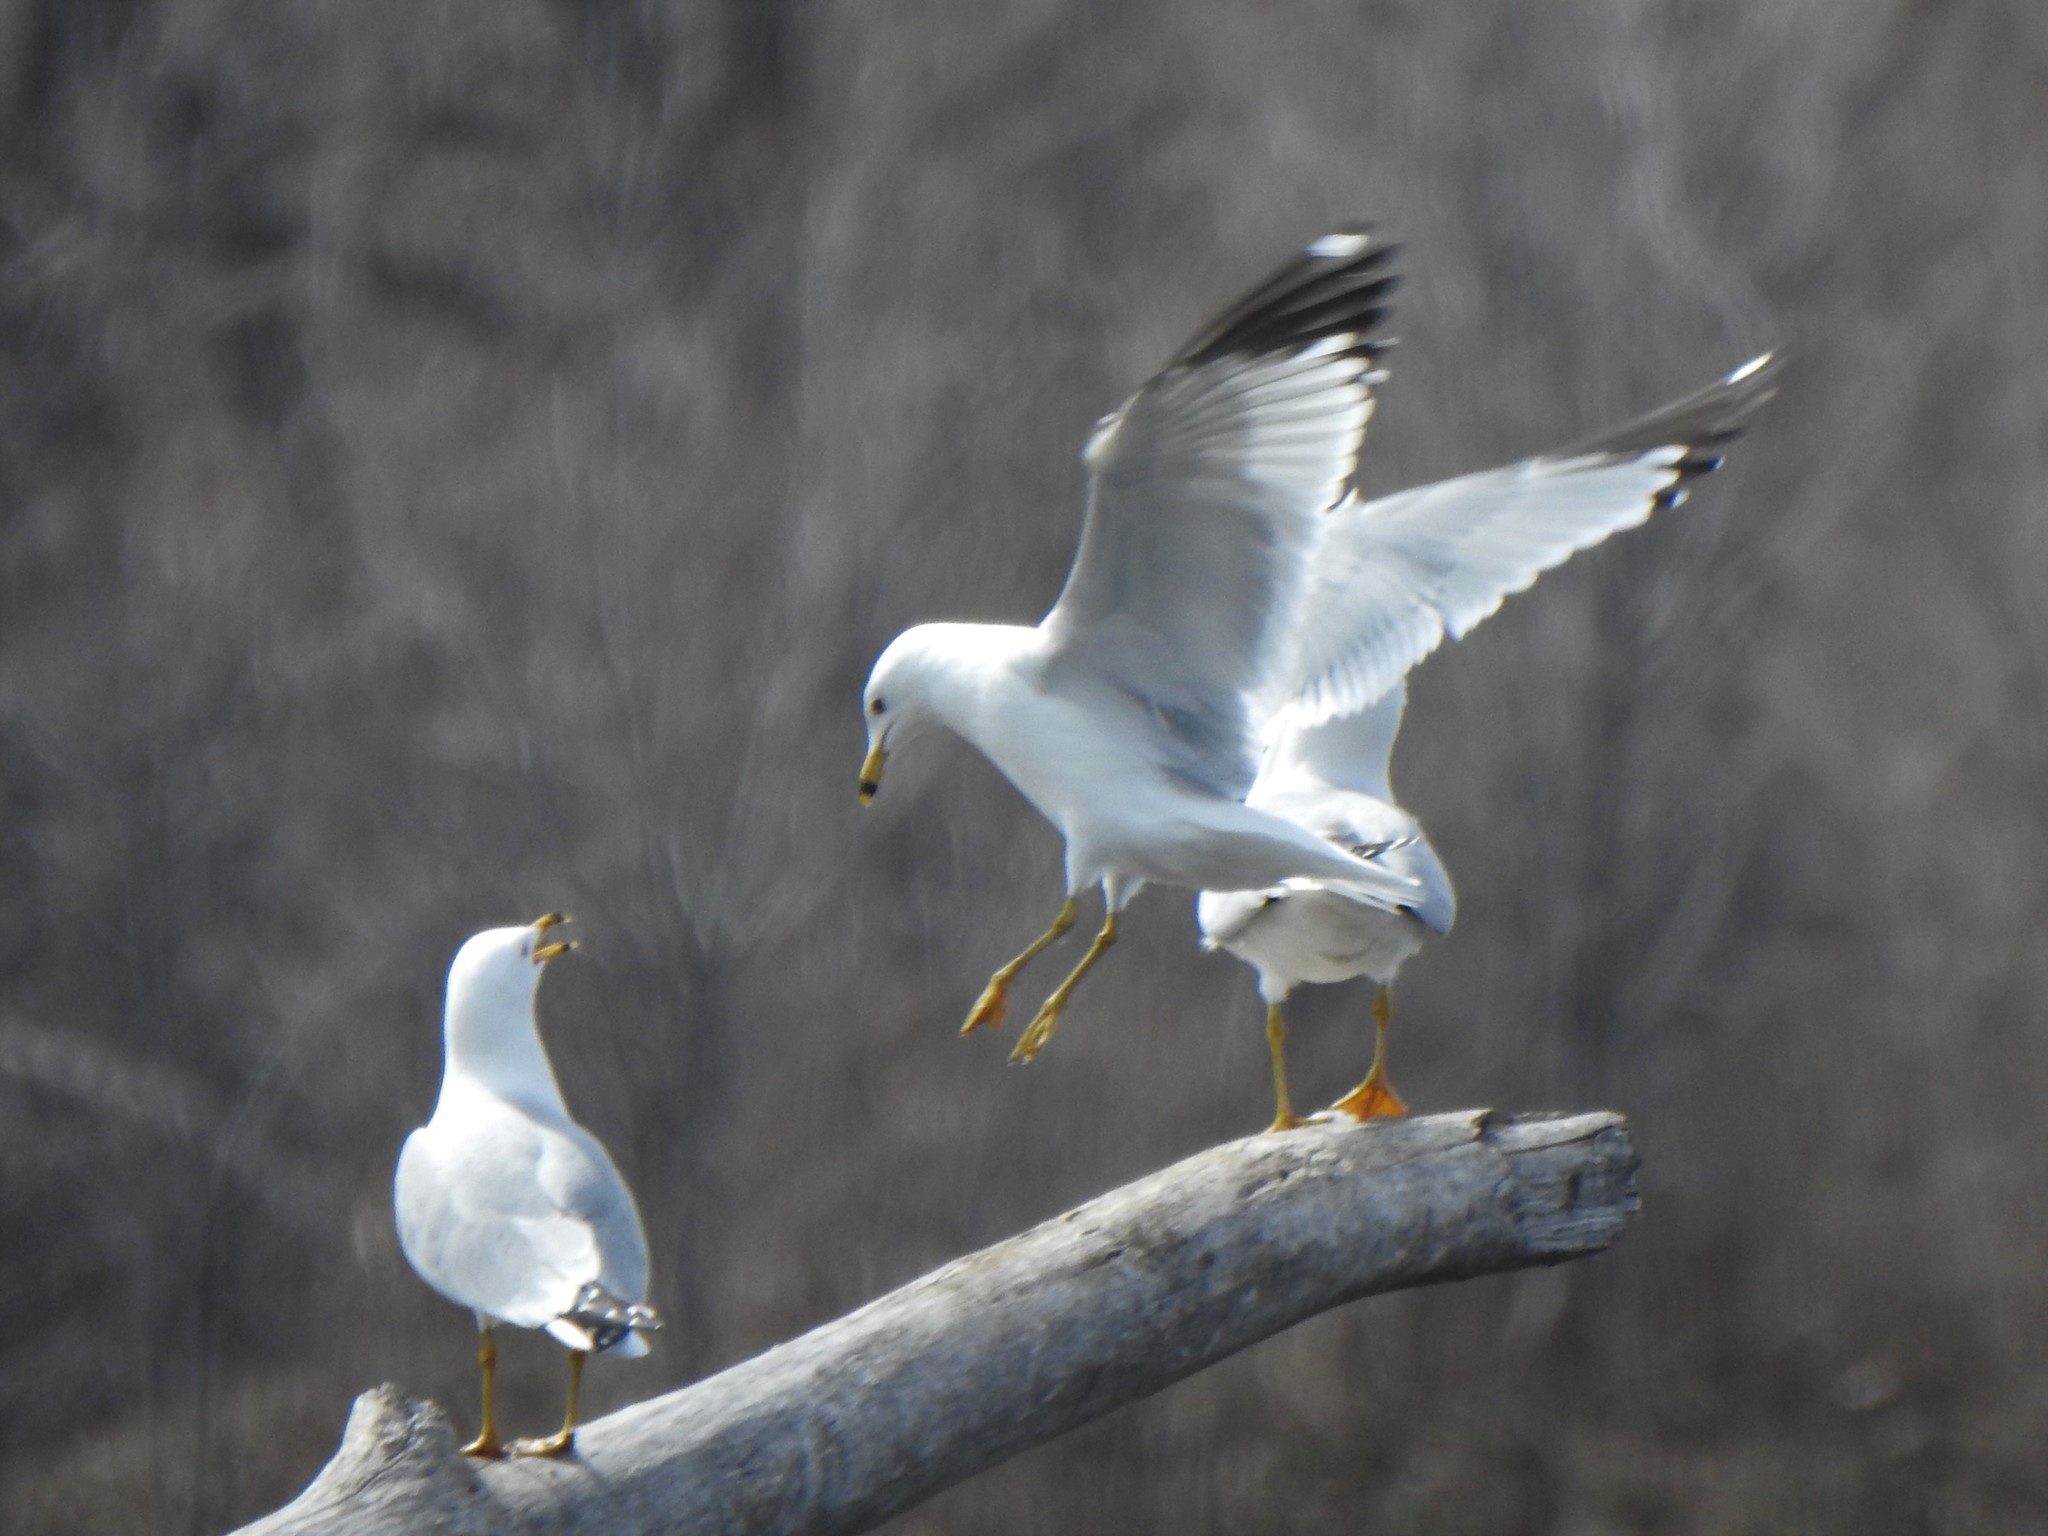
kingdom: Animalia
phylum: Chordata
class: Aves
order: Charadriiformes
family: Laridae
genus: Larus
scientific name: Larus delawarensis
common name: Ring-billed gull
